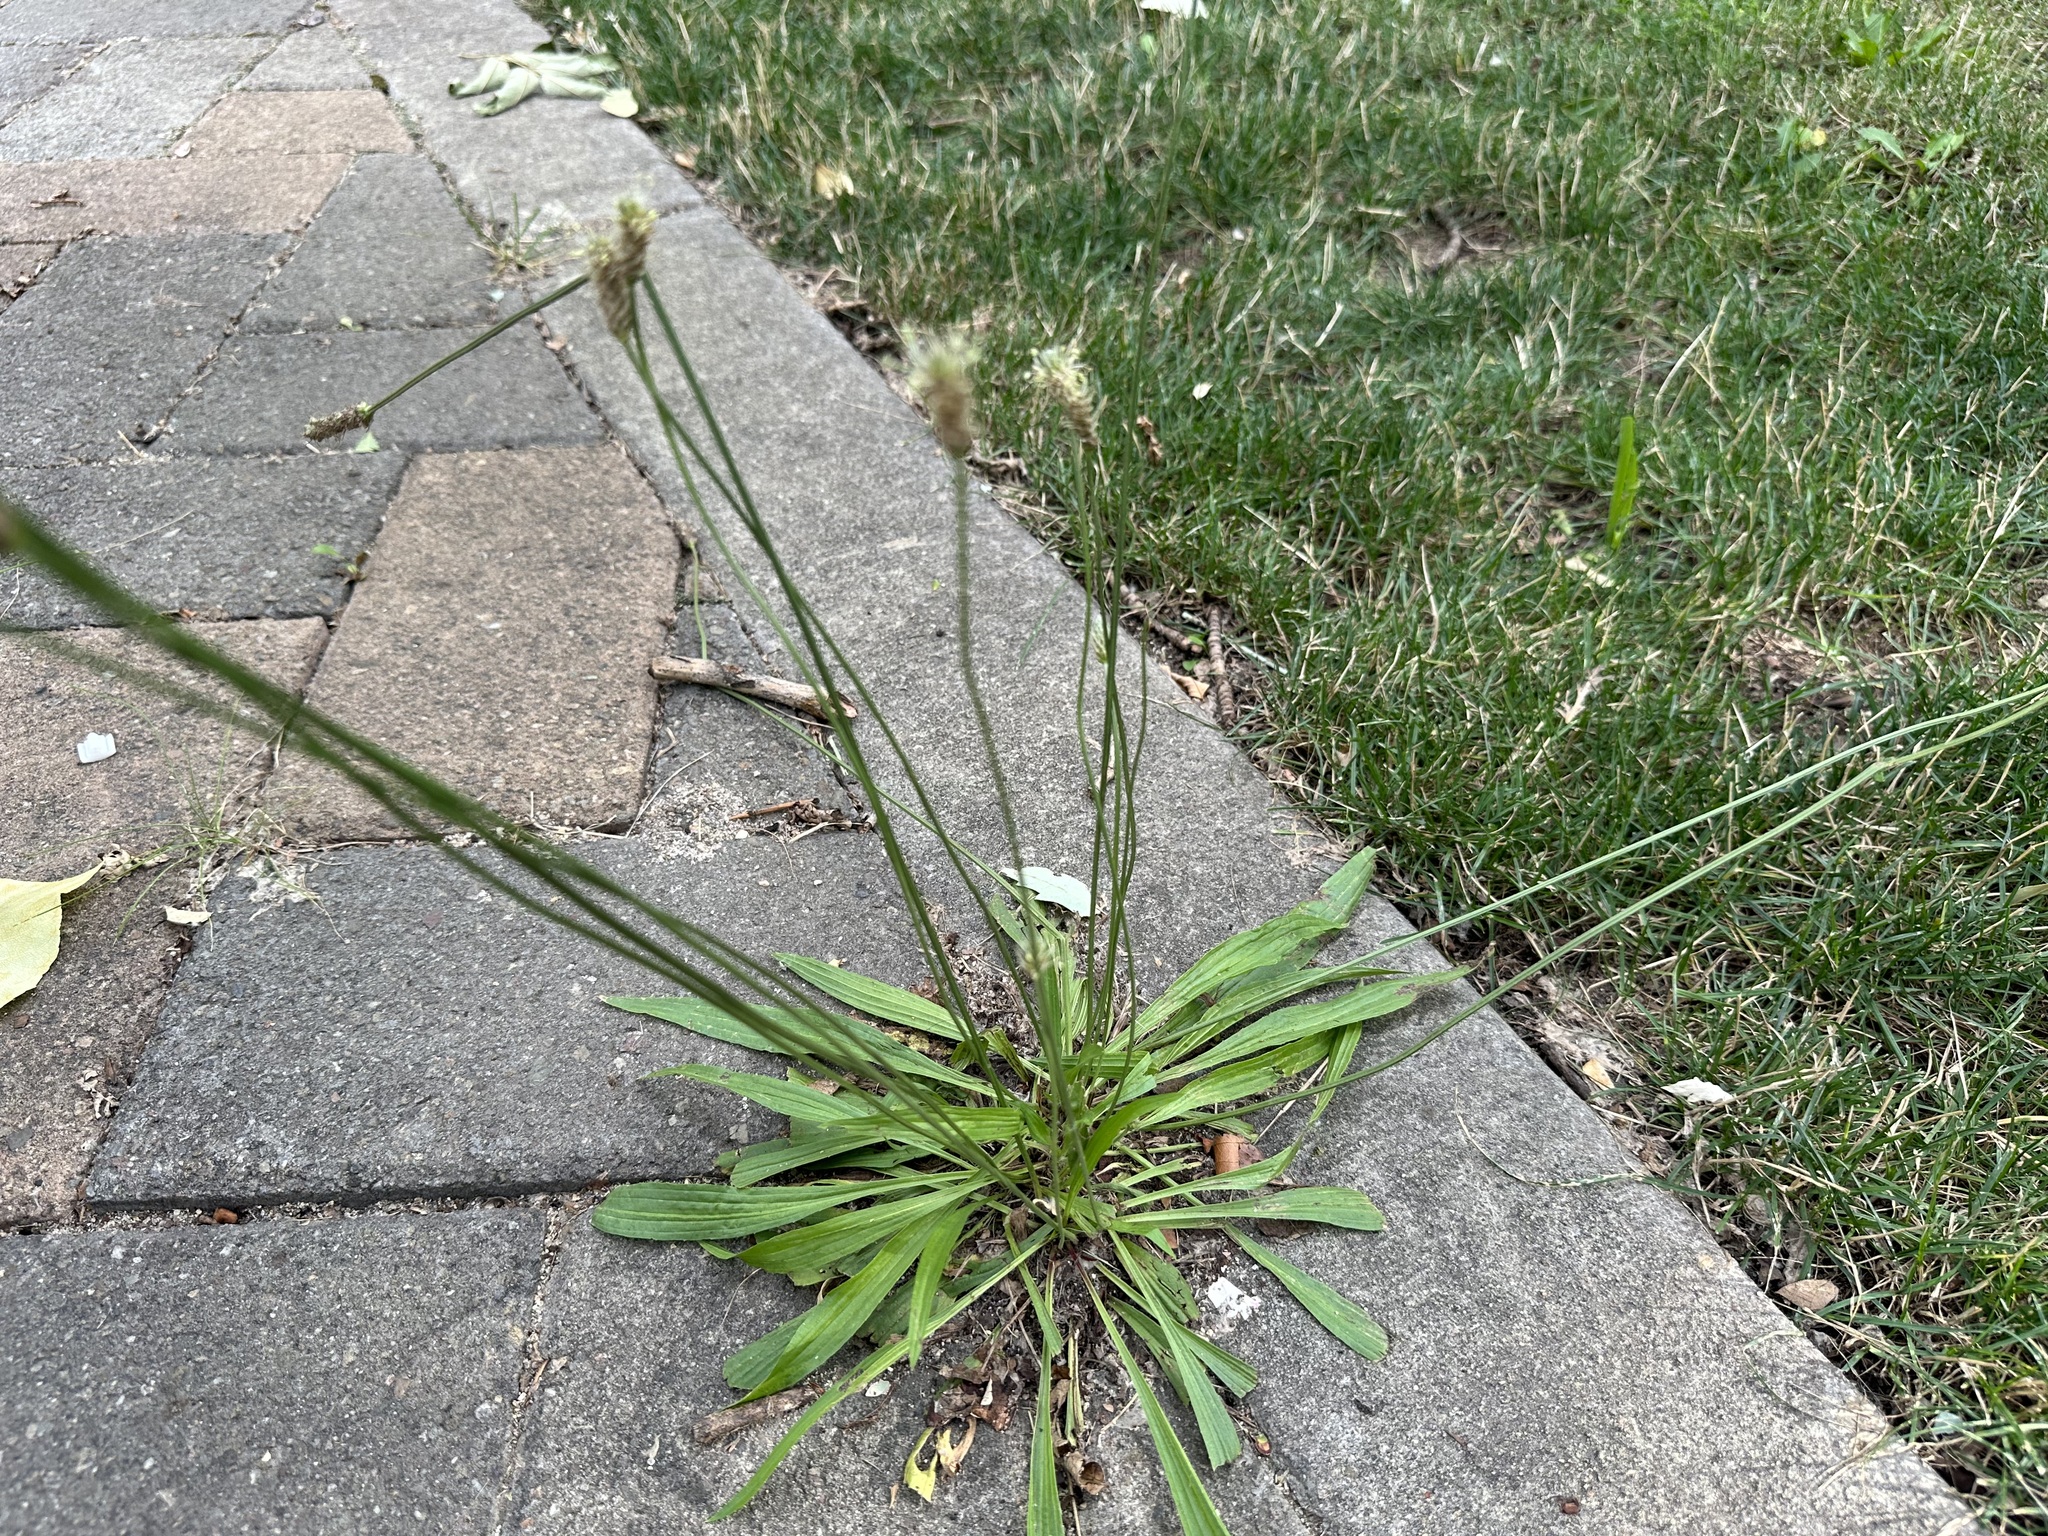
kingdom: Plantae
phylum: Tracheophyta
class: Magnoliopsida
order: Lamiales
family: Plantaginaceae
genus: Plantago
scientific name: Plantago lanceolata
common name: Ribwort plantain
